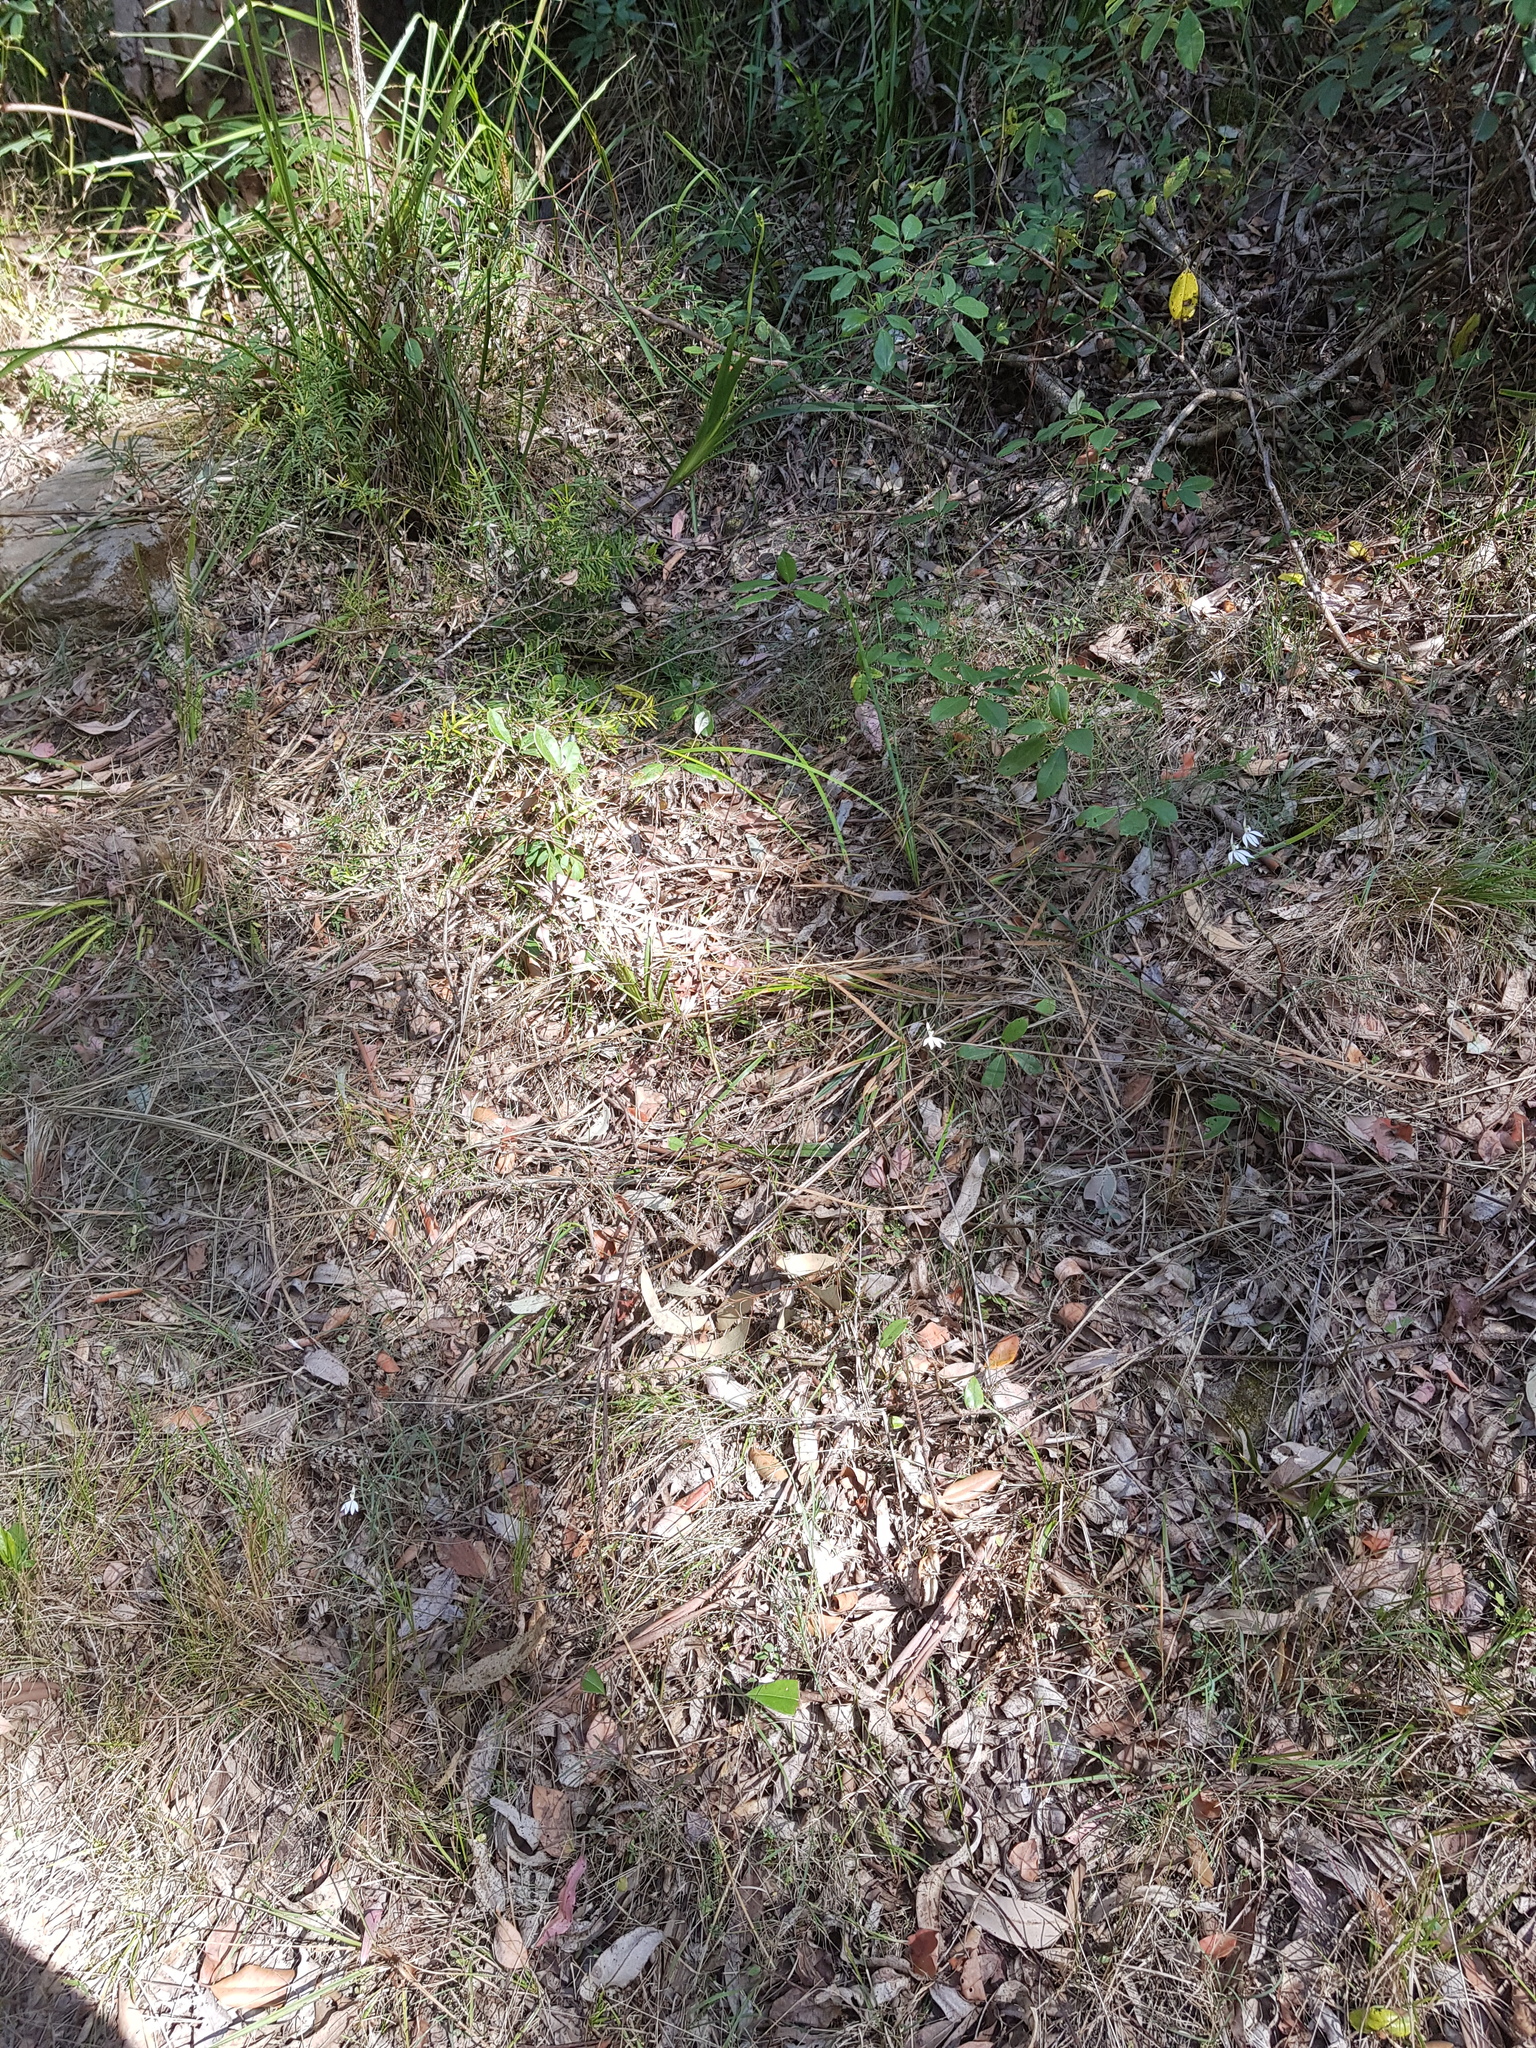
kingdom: Plantae
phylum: Tracheophyta
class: Liliopsida
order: Asparagales
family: Orchidaceae
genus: Caladenia
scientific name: Caladenia catenata
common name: White caladenia
